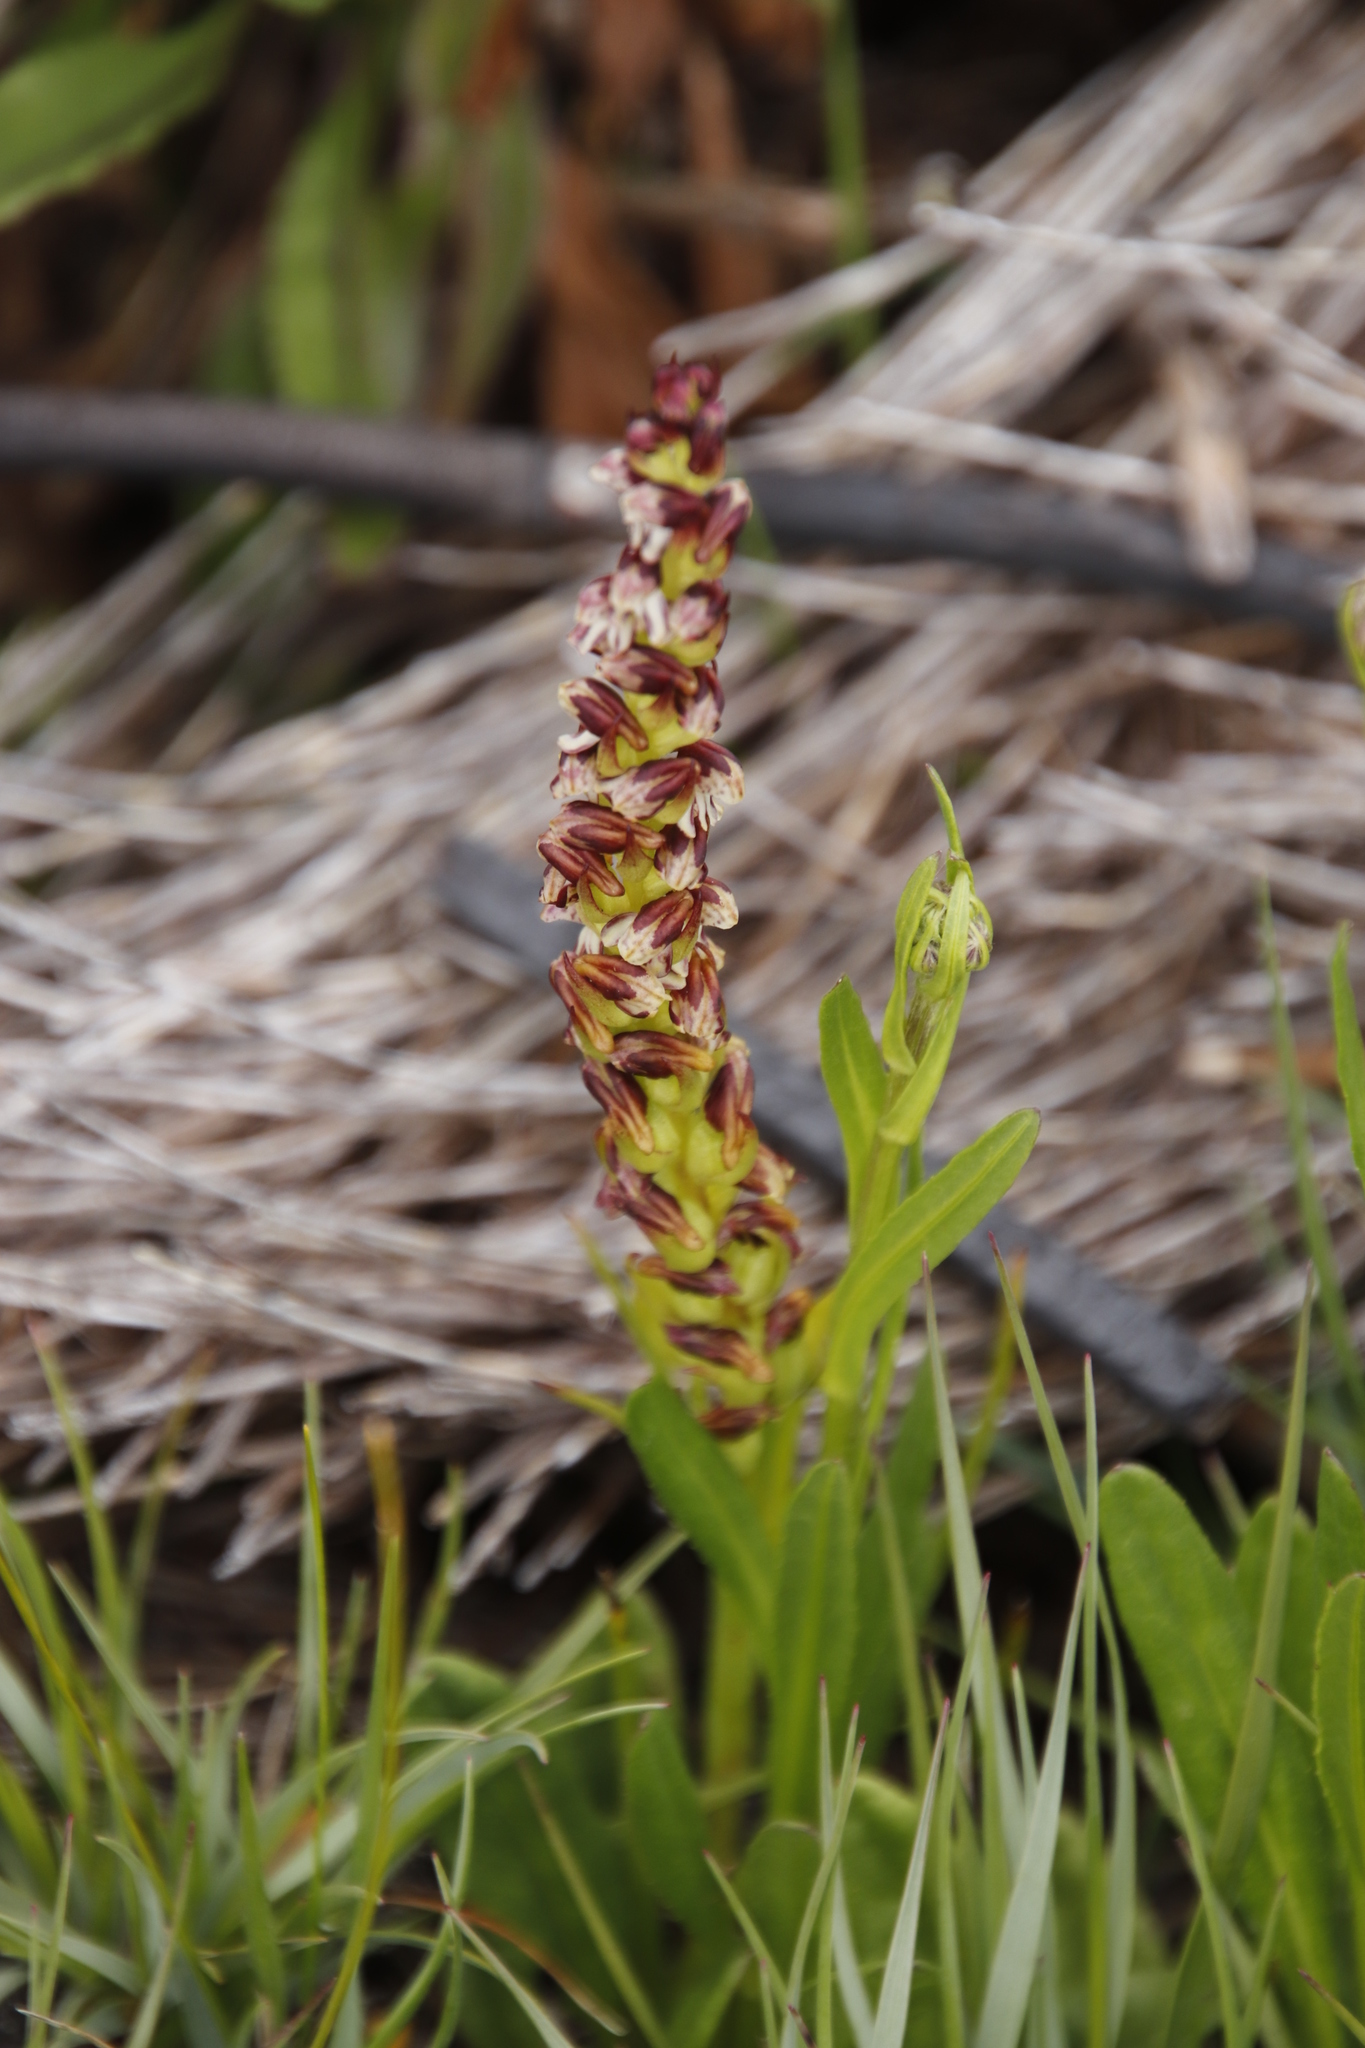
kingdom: Plantae
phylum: Tracheophyta
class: Liliopsida
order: Asparagales
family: Orchidaceae
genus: Disa
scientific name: Disa obtusa
